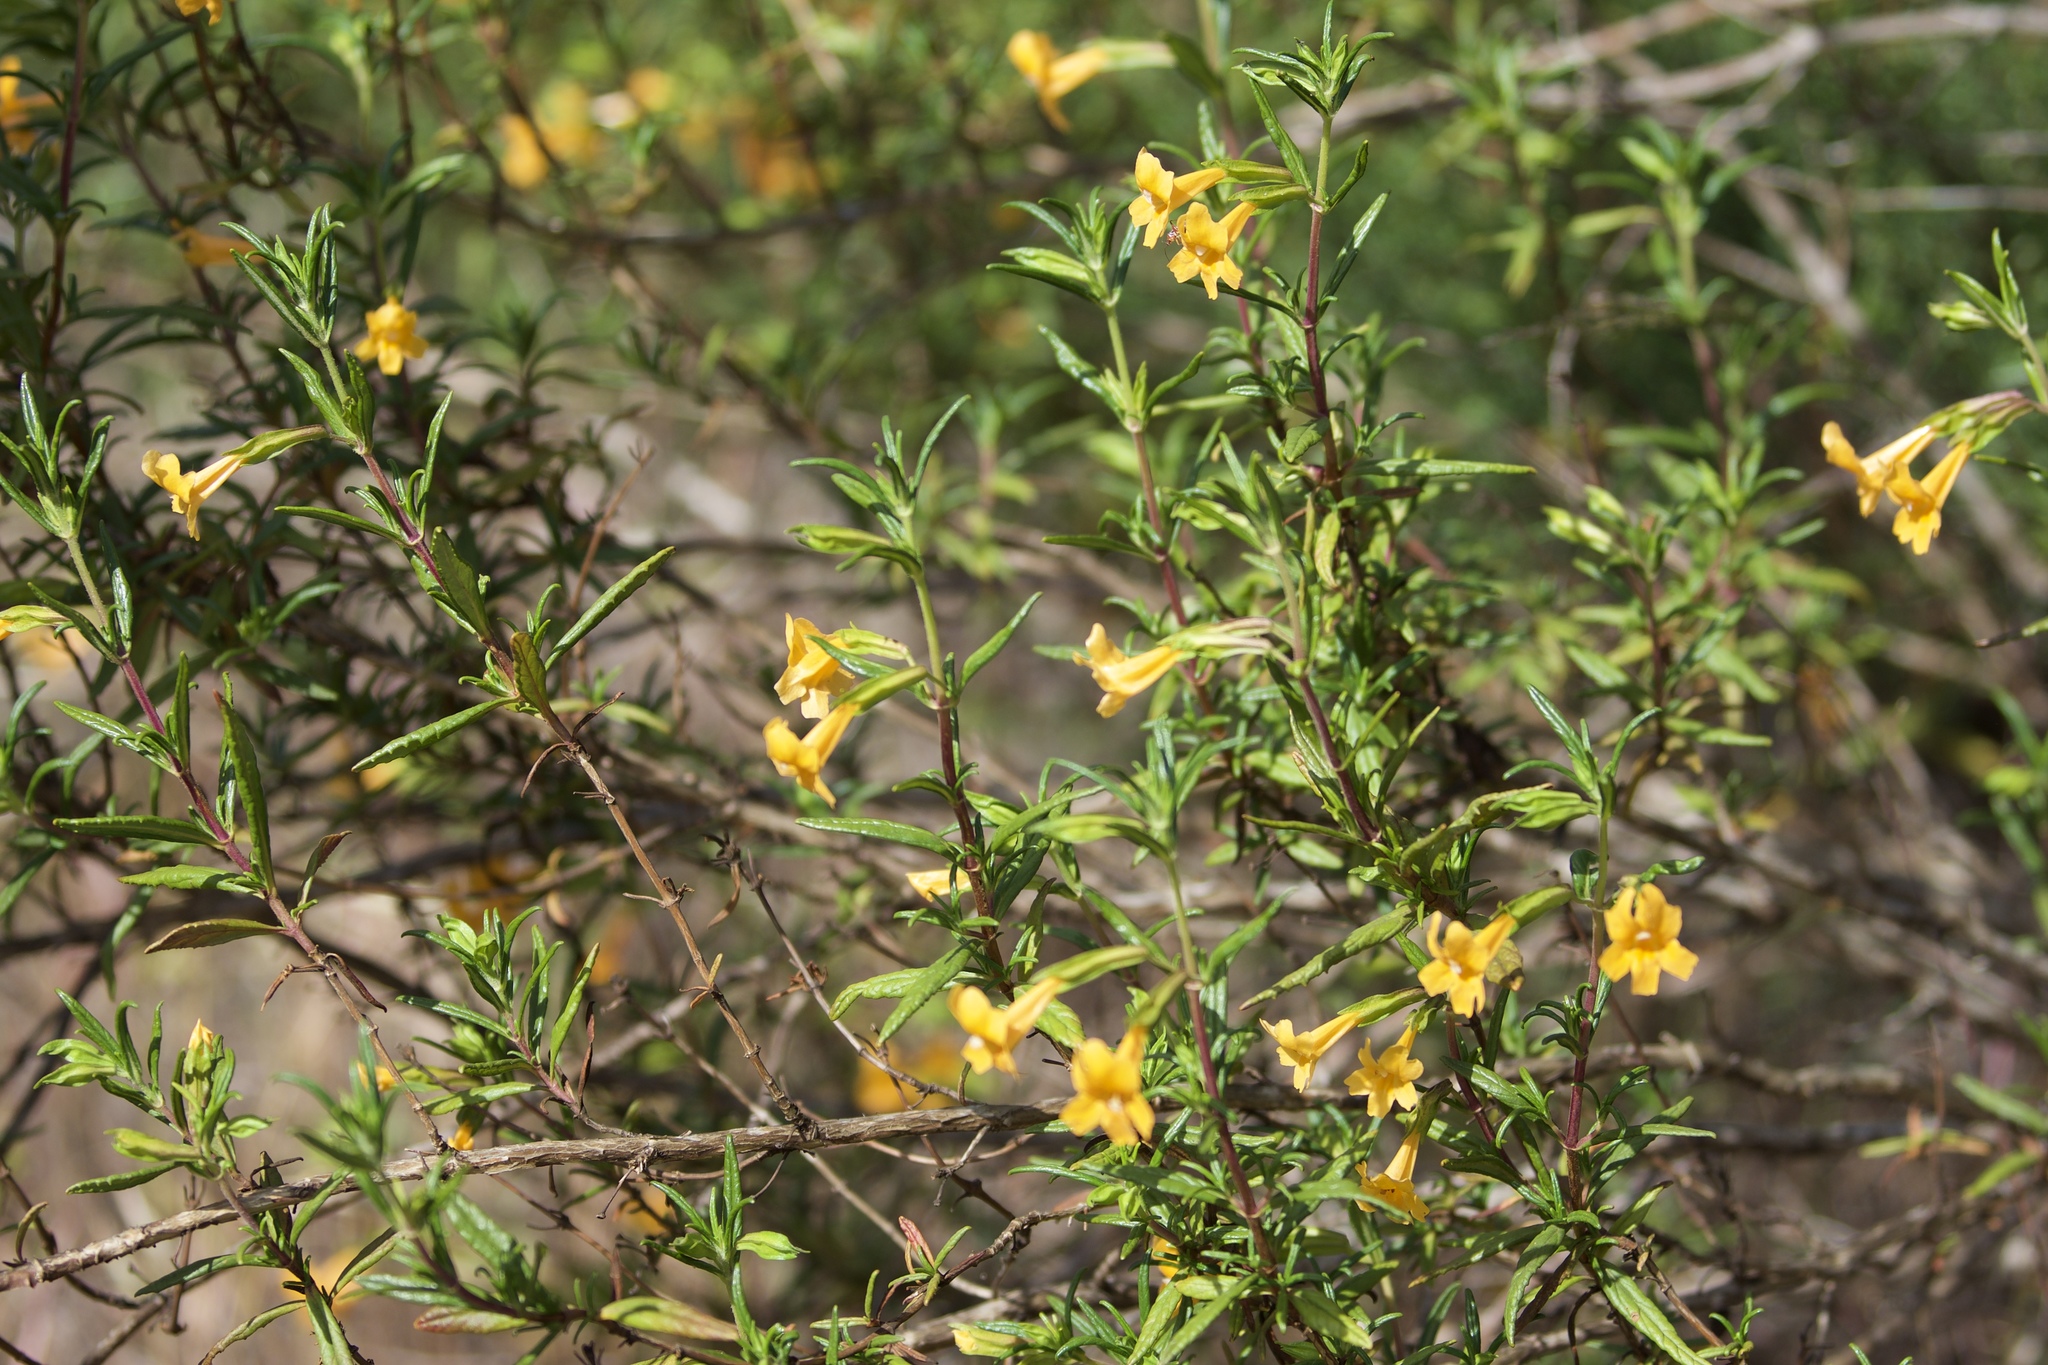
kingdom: Plantae
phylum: Tracheophyta
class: Magnoliopsida
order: Lamiales
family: Phrymaceae
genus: Diplacus
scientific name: Diplacus aurantiacus
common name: Bush monkey-flower
